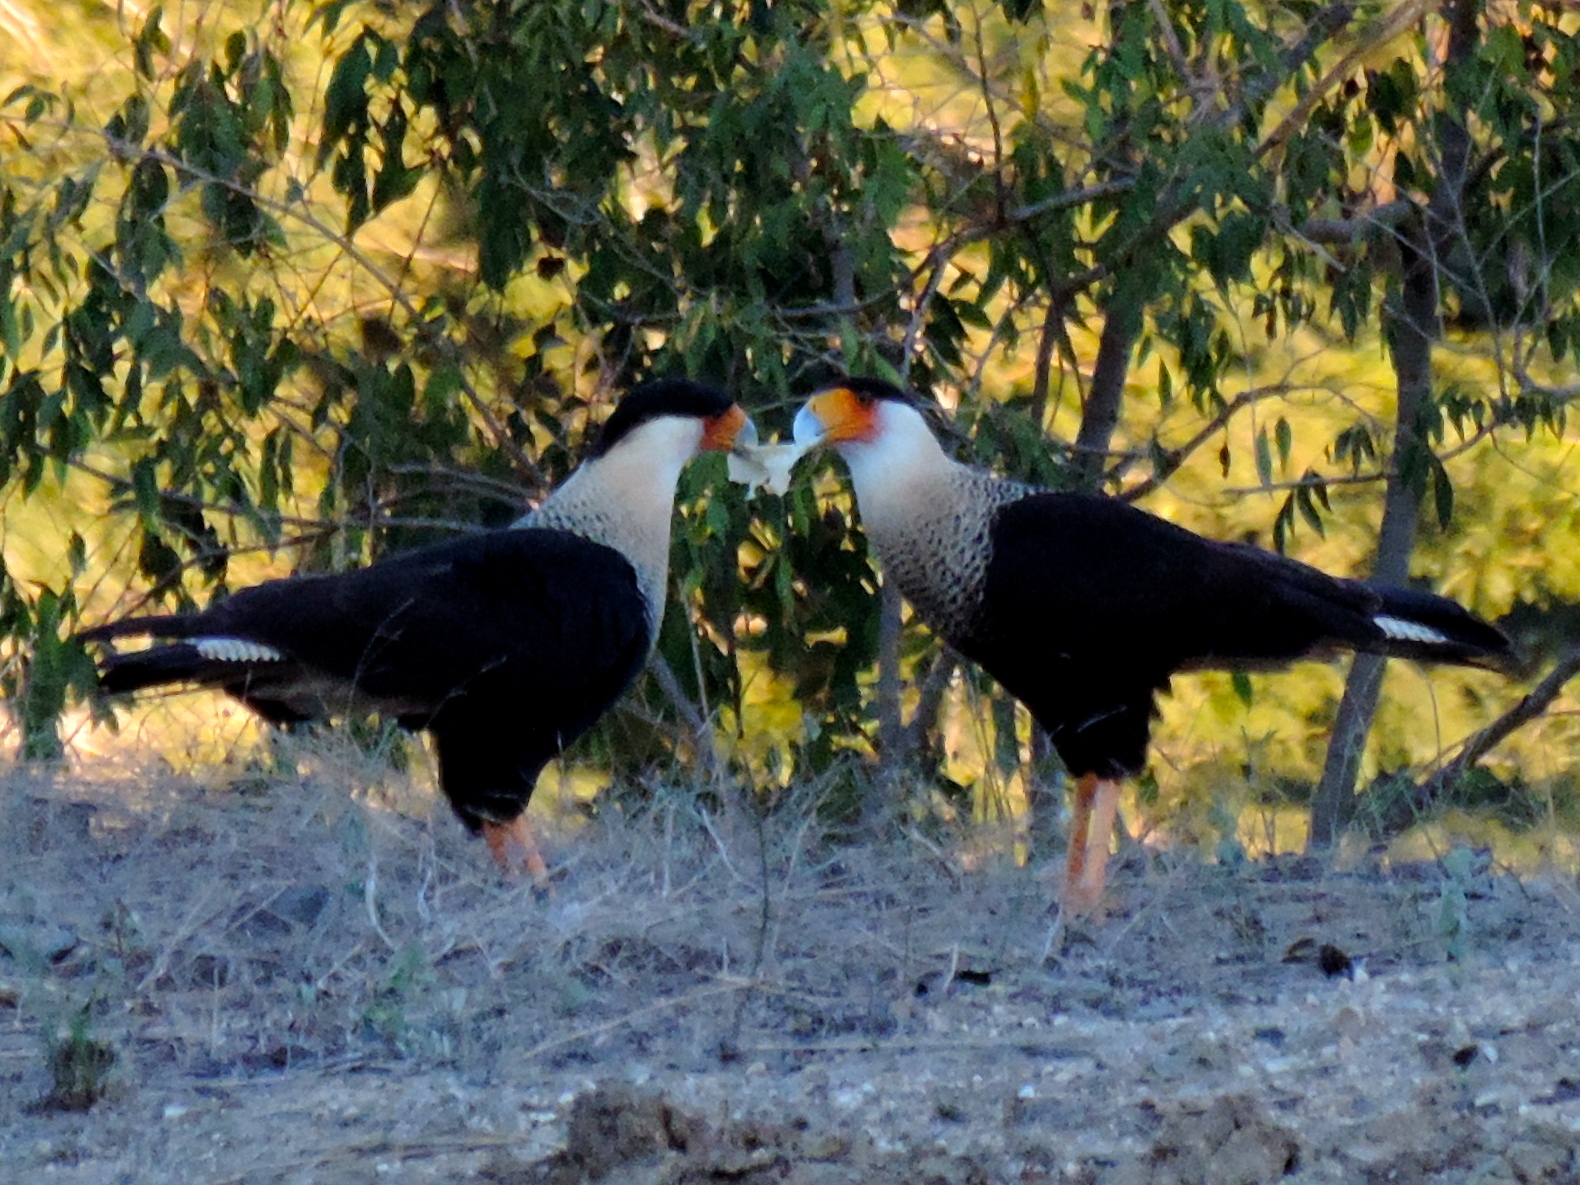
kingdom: Animalia
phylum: Chordata
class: Aves
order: Falconiformes
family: Falconidae
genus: Caracara
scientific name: Caracara plancus
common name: Southern caracara
